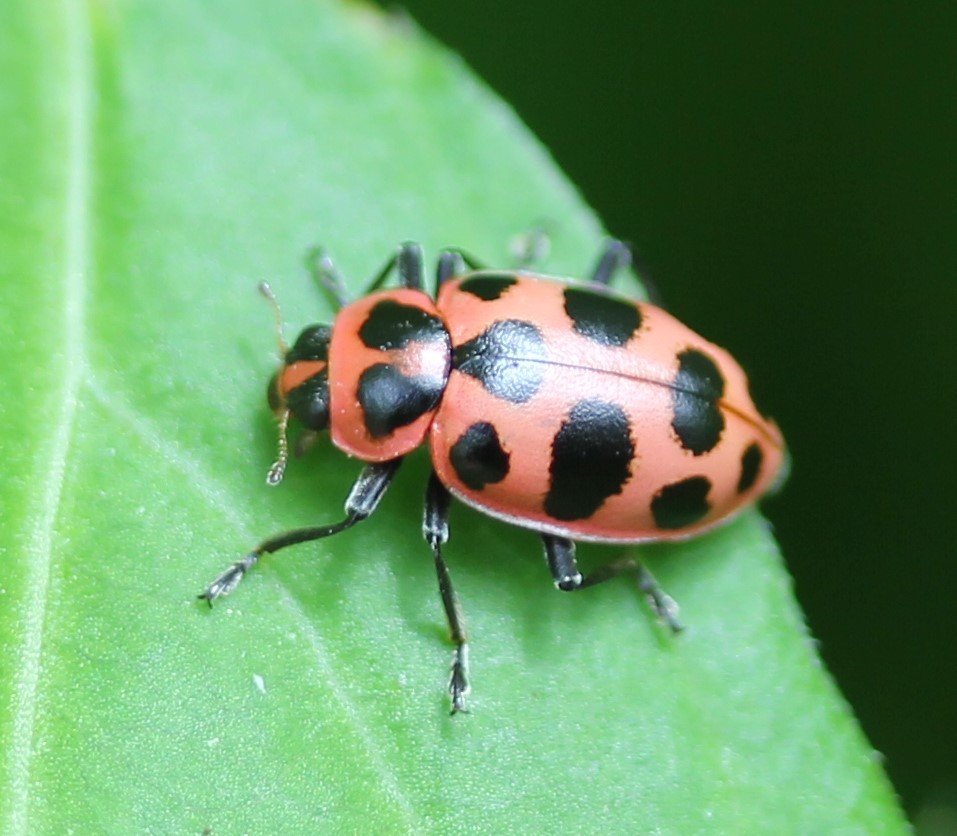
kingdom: Animalia
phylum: Arthropoda
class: Insecta
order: Coleoptera
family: Coccinellidae
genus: Coleomegilla
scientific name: Coleomegilla maculata
